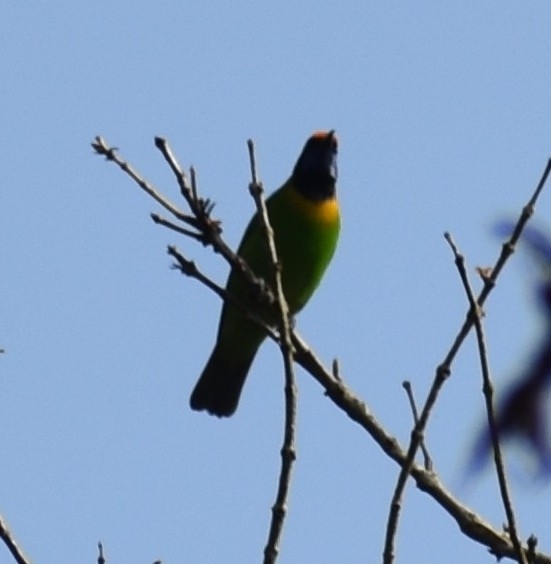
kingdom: Animalia
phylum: Chordata
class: Aves
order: Passeriformes
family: Chloropseidae
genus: Chloropsis
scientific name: Chloropsis aurifrons
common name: Golden-fronted leafbird
